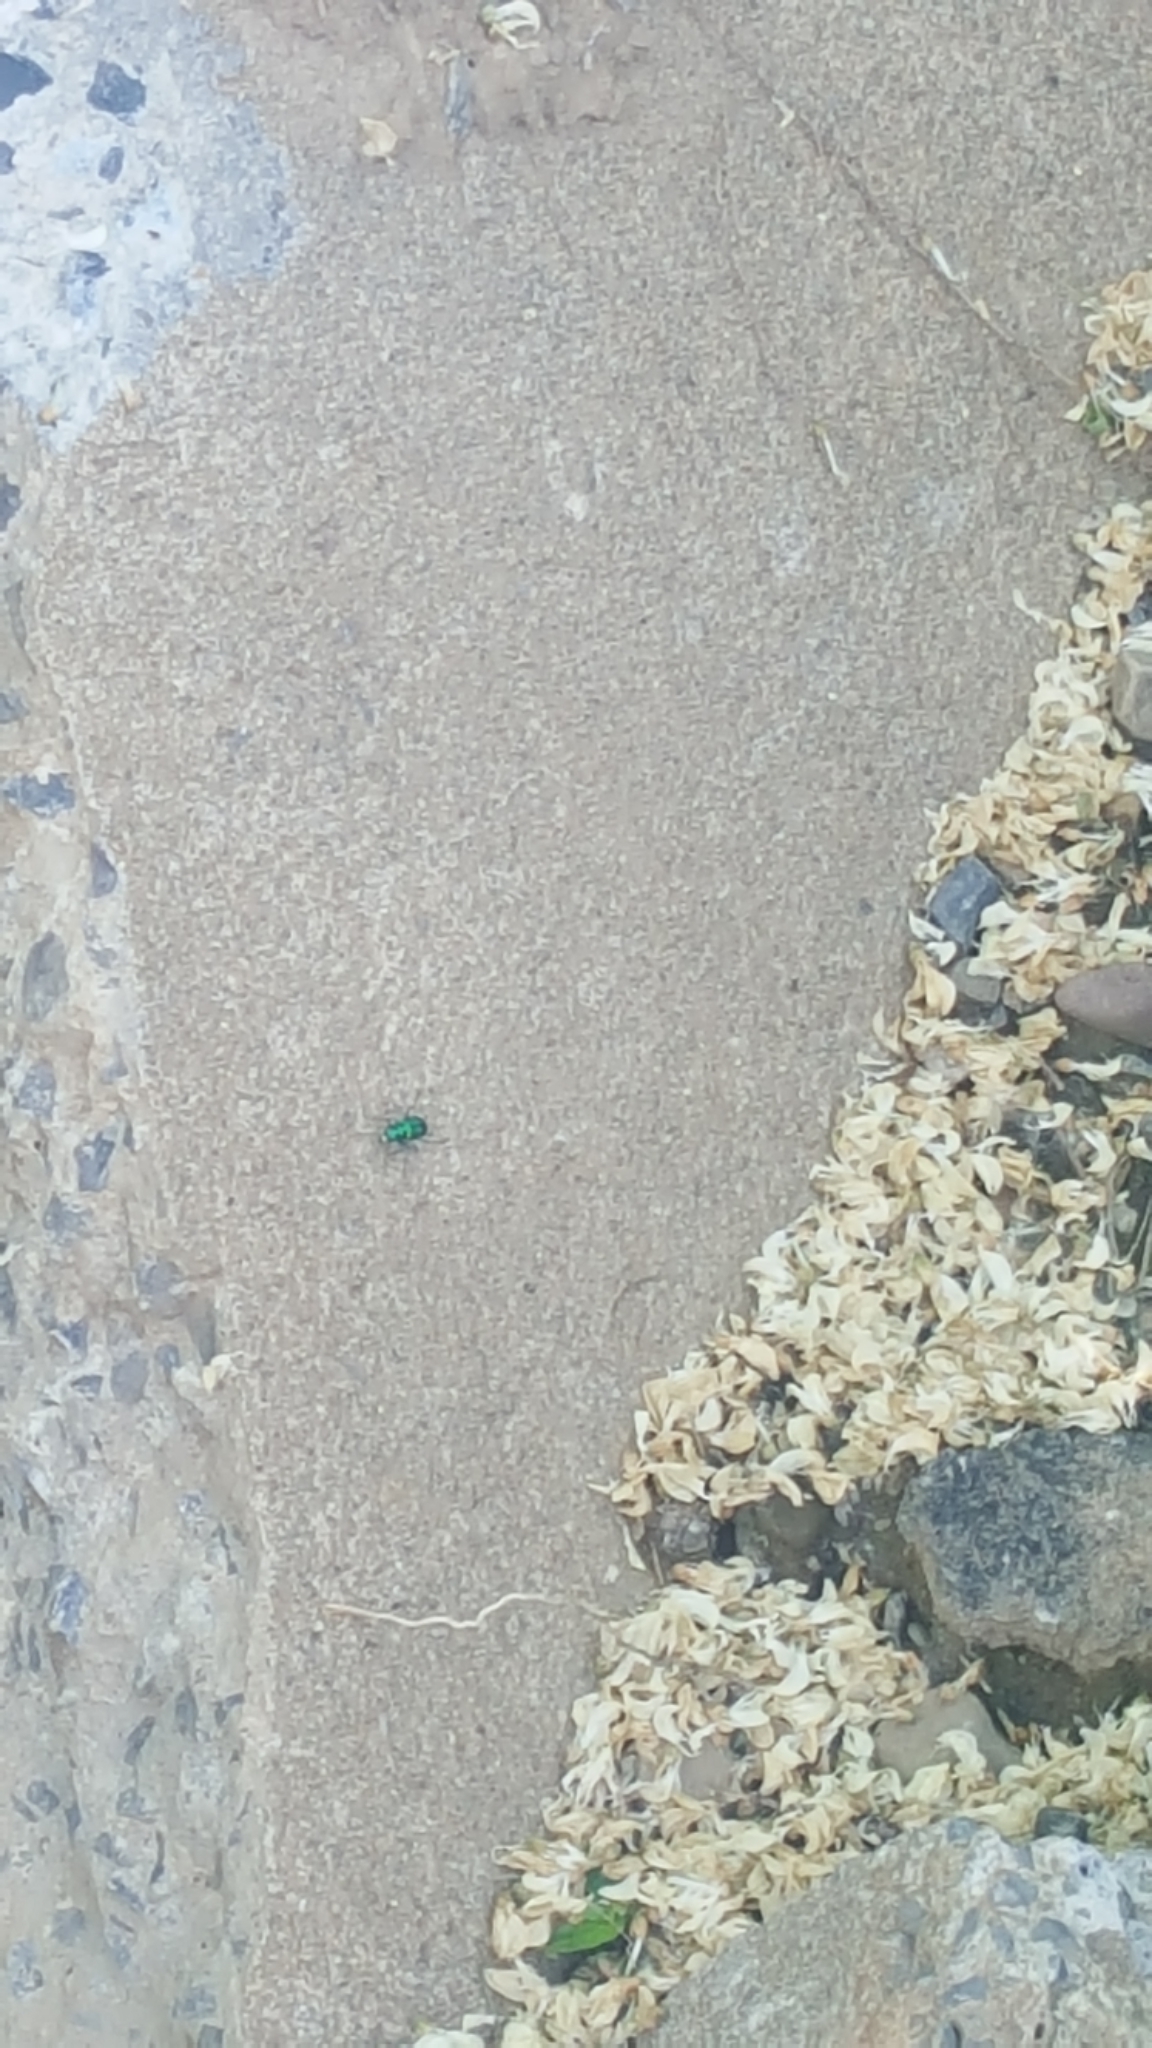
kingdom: Animalia
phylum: Arthropoda
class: Insecta
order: Coleoptera
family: Carabidae
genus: Cicindela
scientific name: Cicindela sexguttata
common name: Six-spotted tiger beetle
